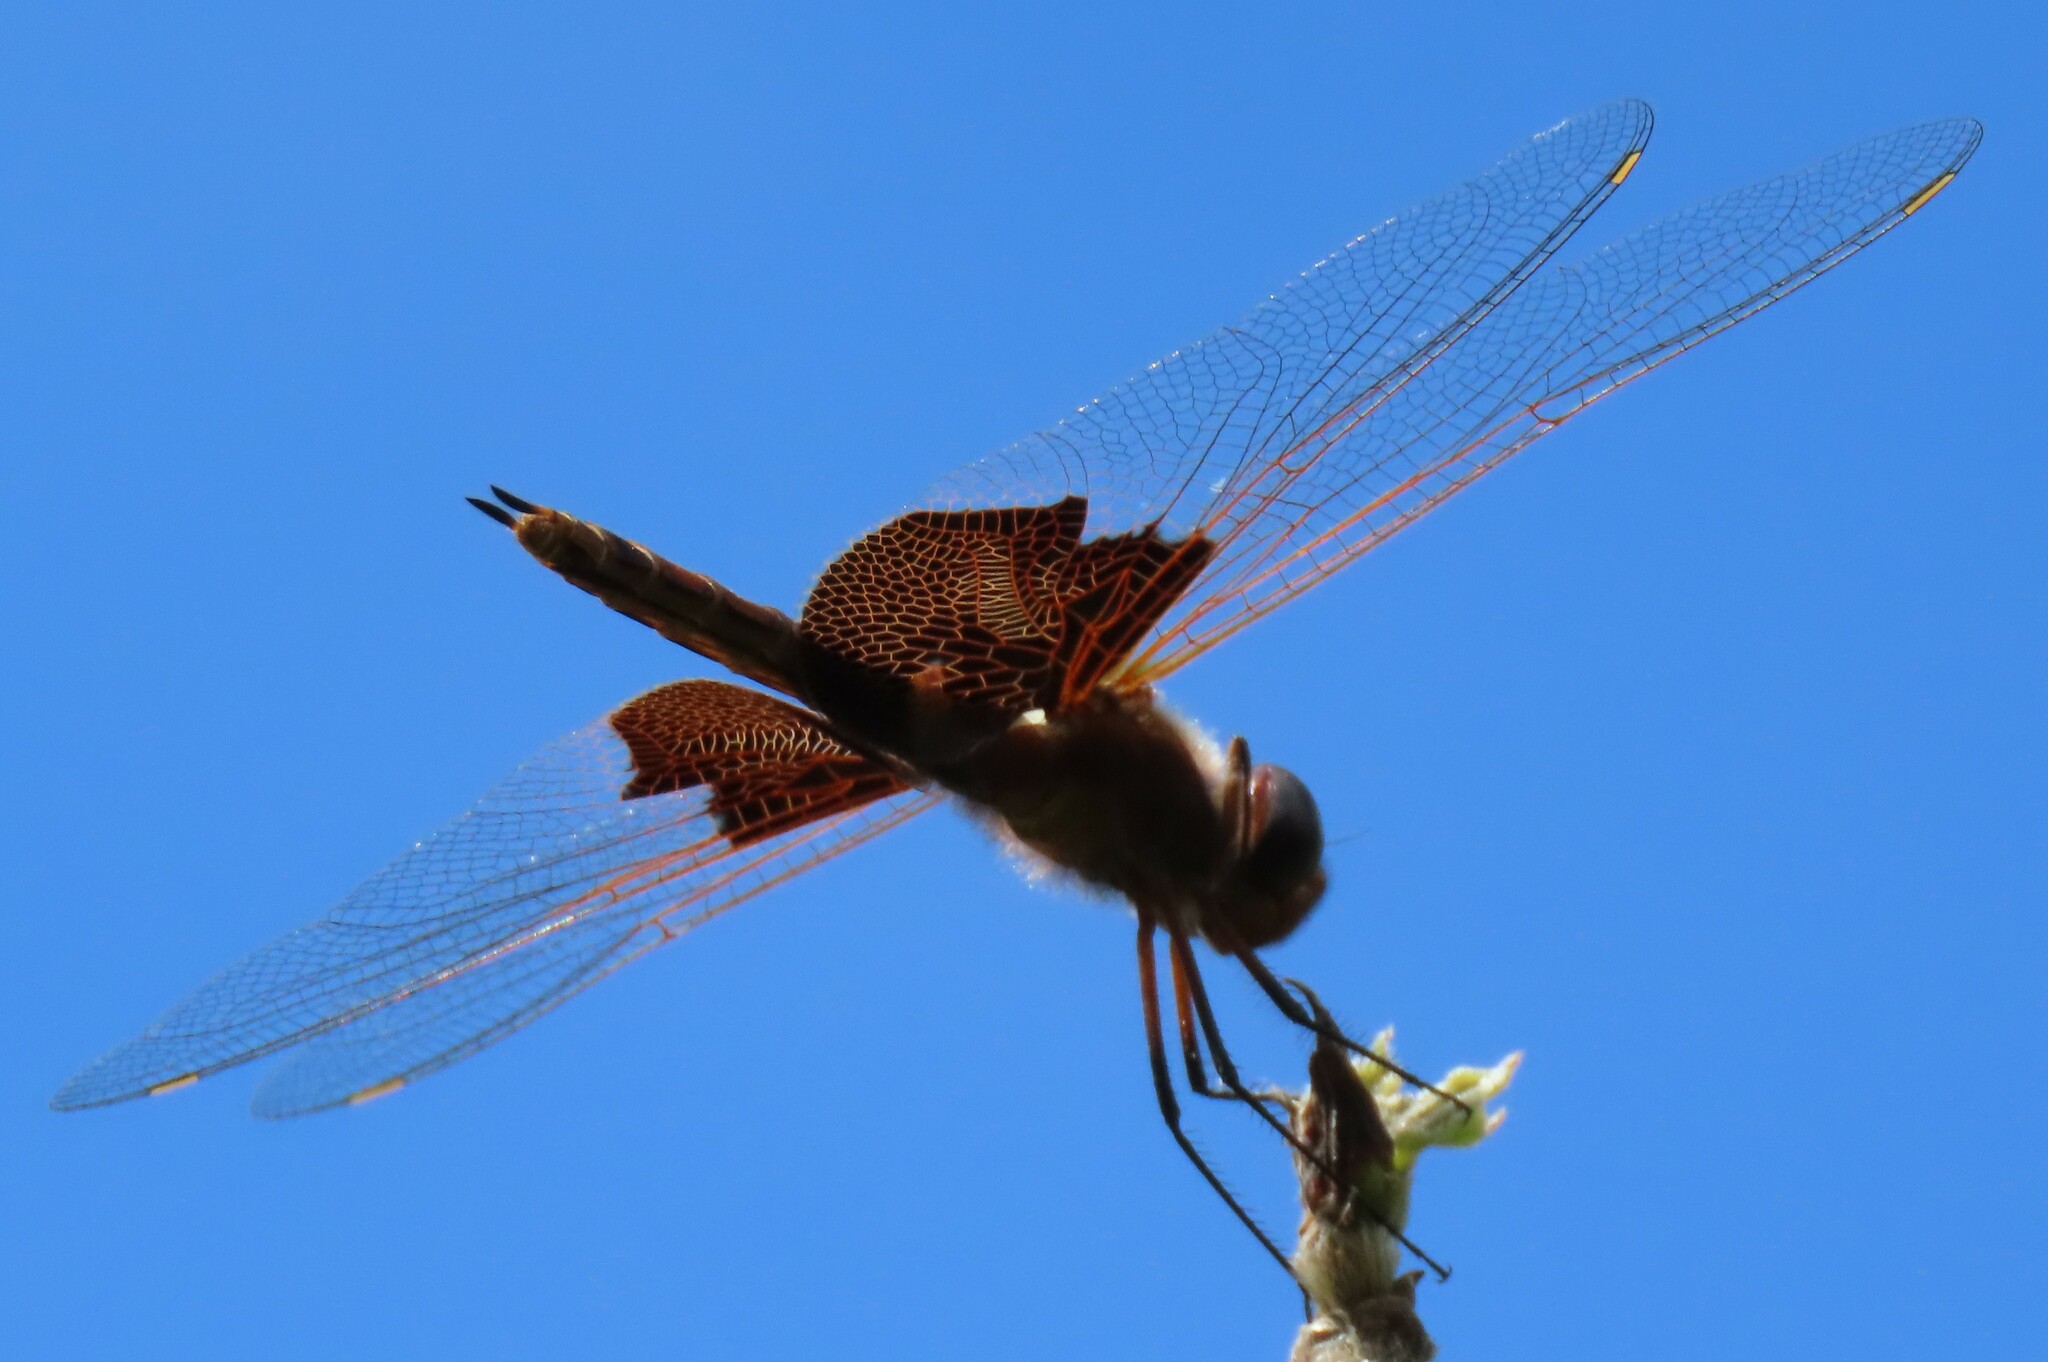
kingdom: Animalia
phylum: Arthropoda
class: Insecta
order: Odonata
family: Libellulidae
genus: Tramea
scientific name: Tramea carolina
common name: Carolina saddlebags
